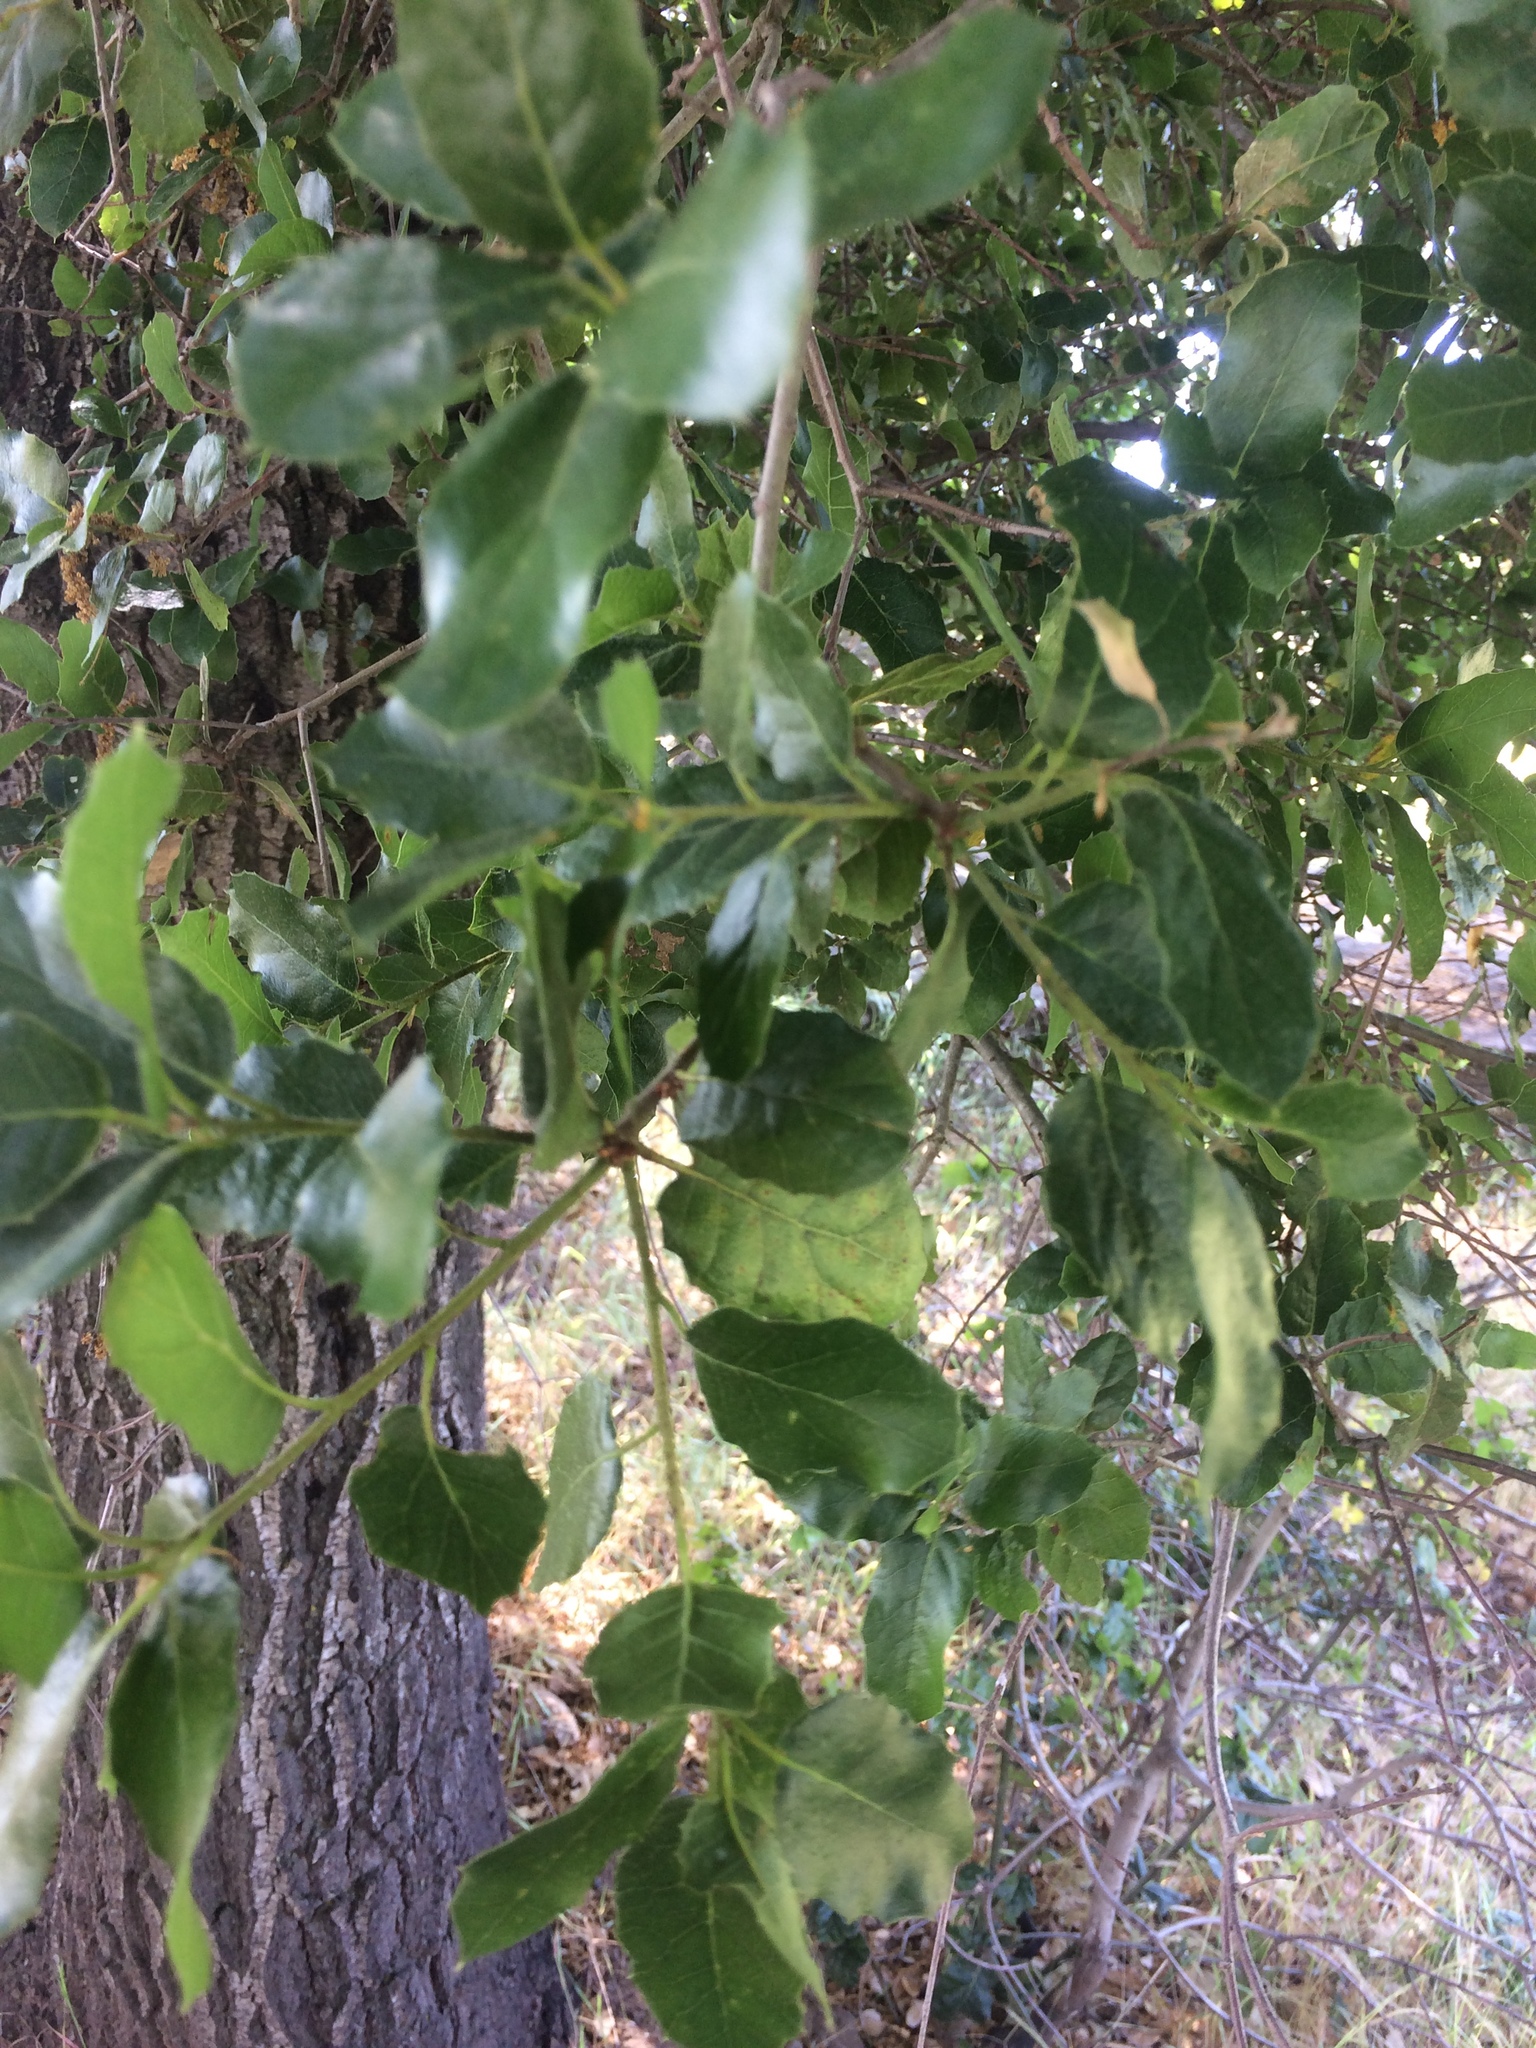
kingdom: Plantae
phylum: Tracheophyta
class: Magnoliopsida
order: Fagales
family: Fagaceae
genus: Quercus
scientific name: Quercus agrifolia
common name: California live oak
